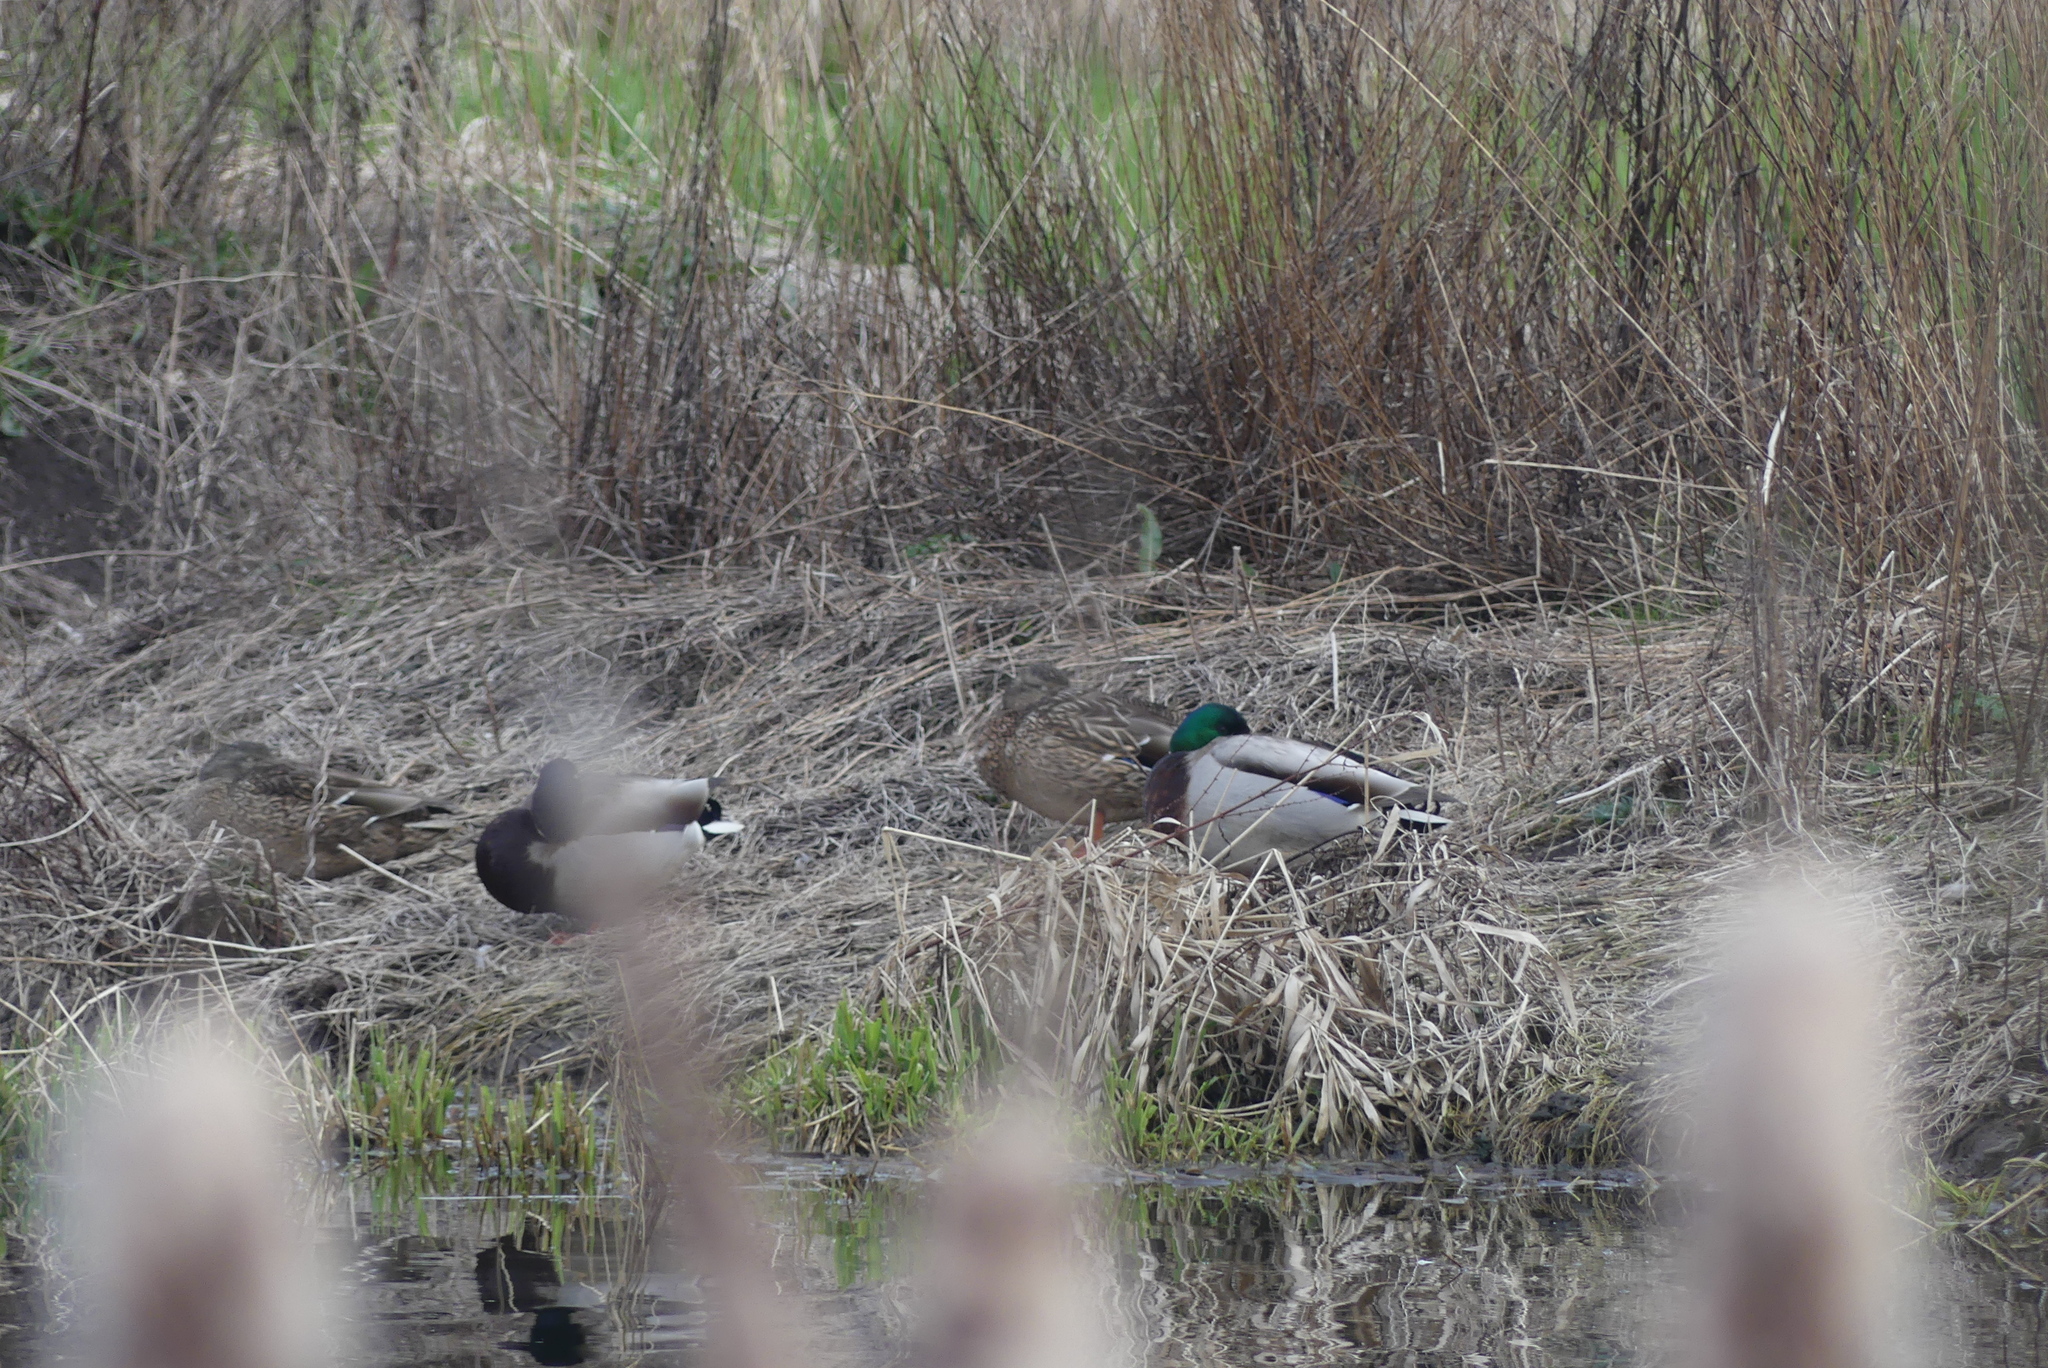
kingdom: Animalia
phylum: Chordata
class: Aves
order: Anseriformes
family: Anatidae
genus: Anas
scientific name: Anas platyrhynchos
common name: Mallard
